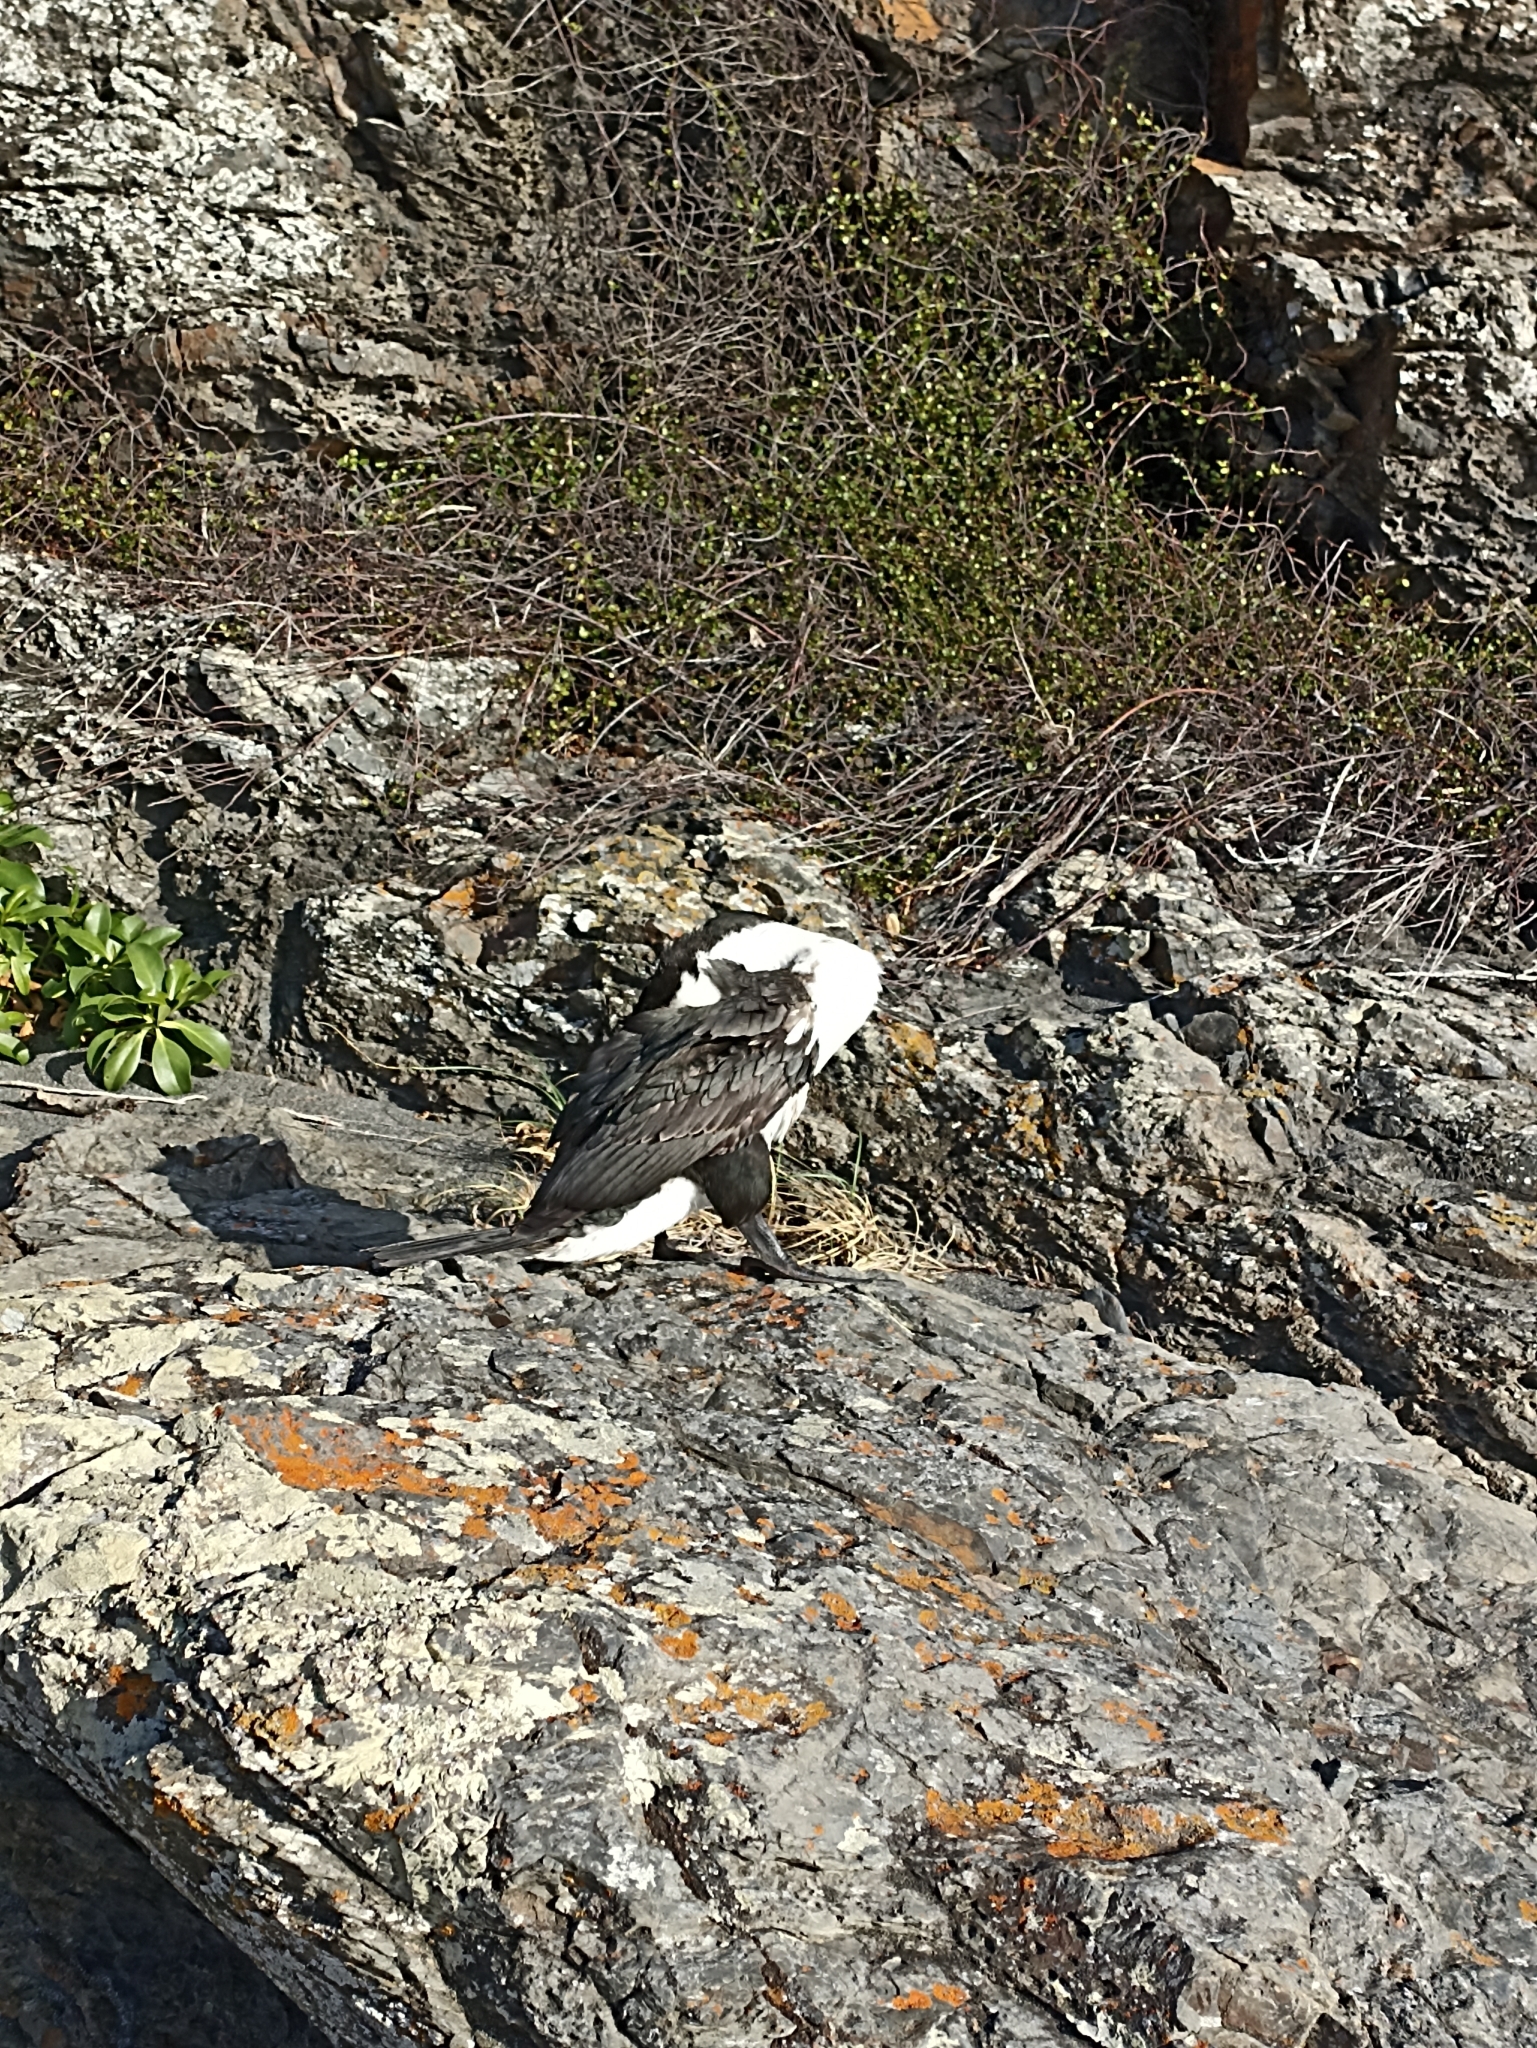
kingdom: Animalia
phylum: Chordata
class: Aves
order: Suliformes
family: Phalacrocoracidae
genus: Phalacrocorax
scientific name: Phalacrocorax varius
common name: Pied cormorant
